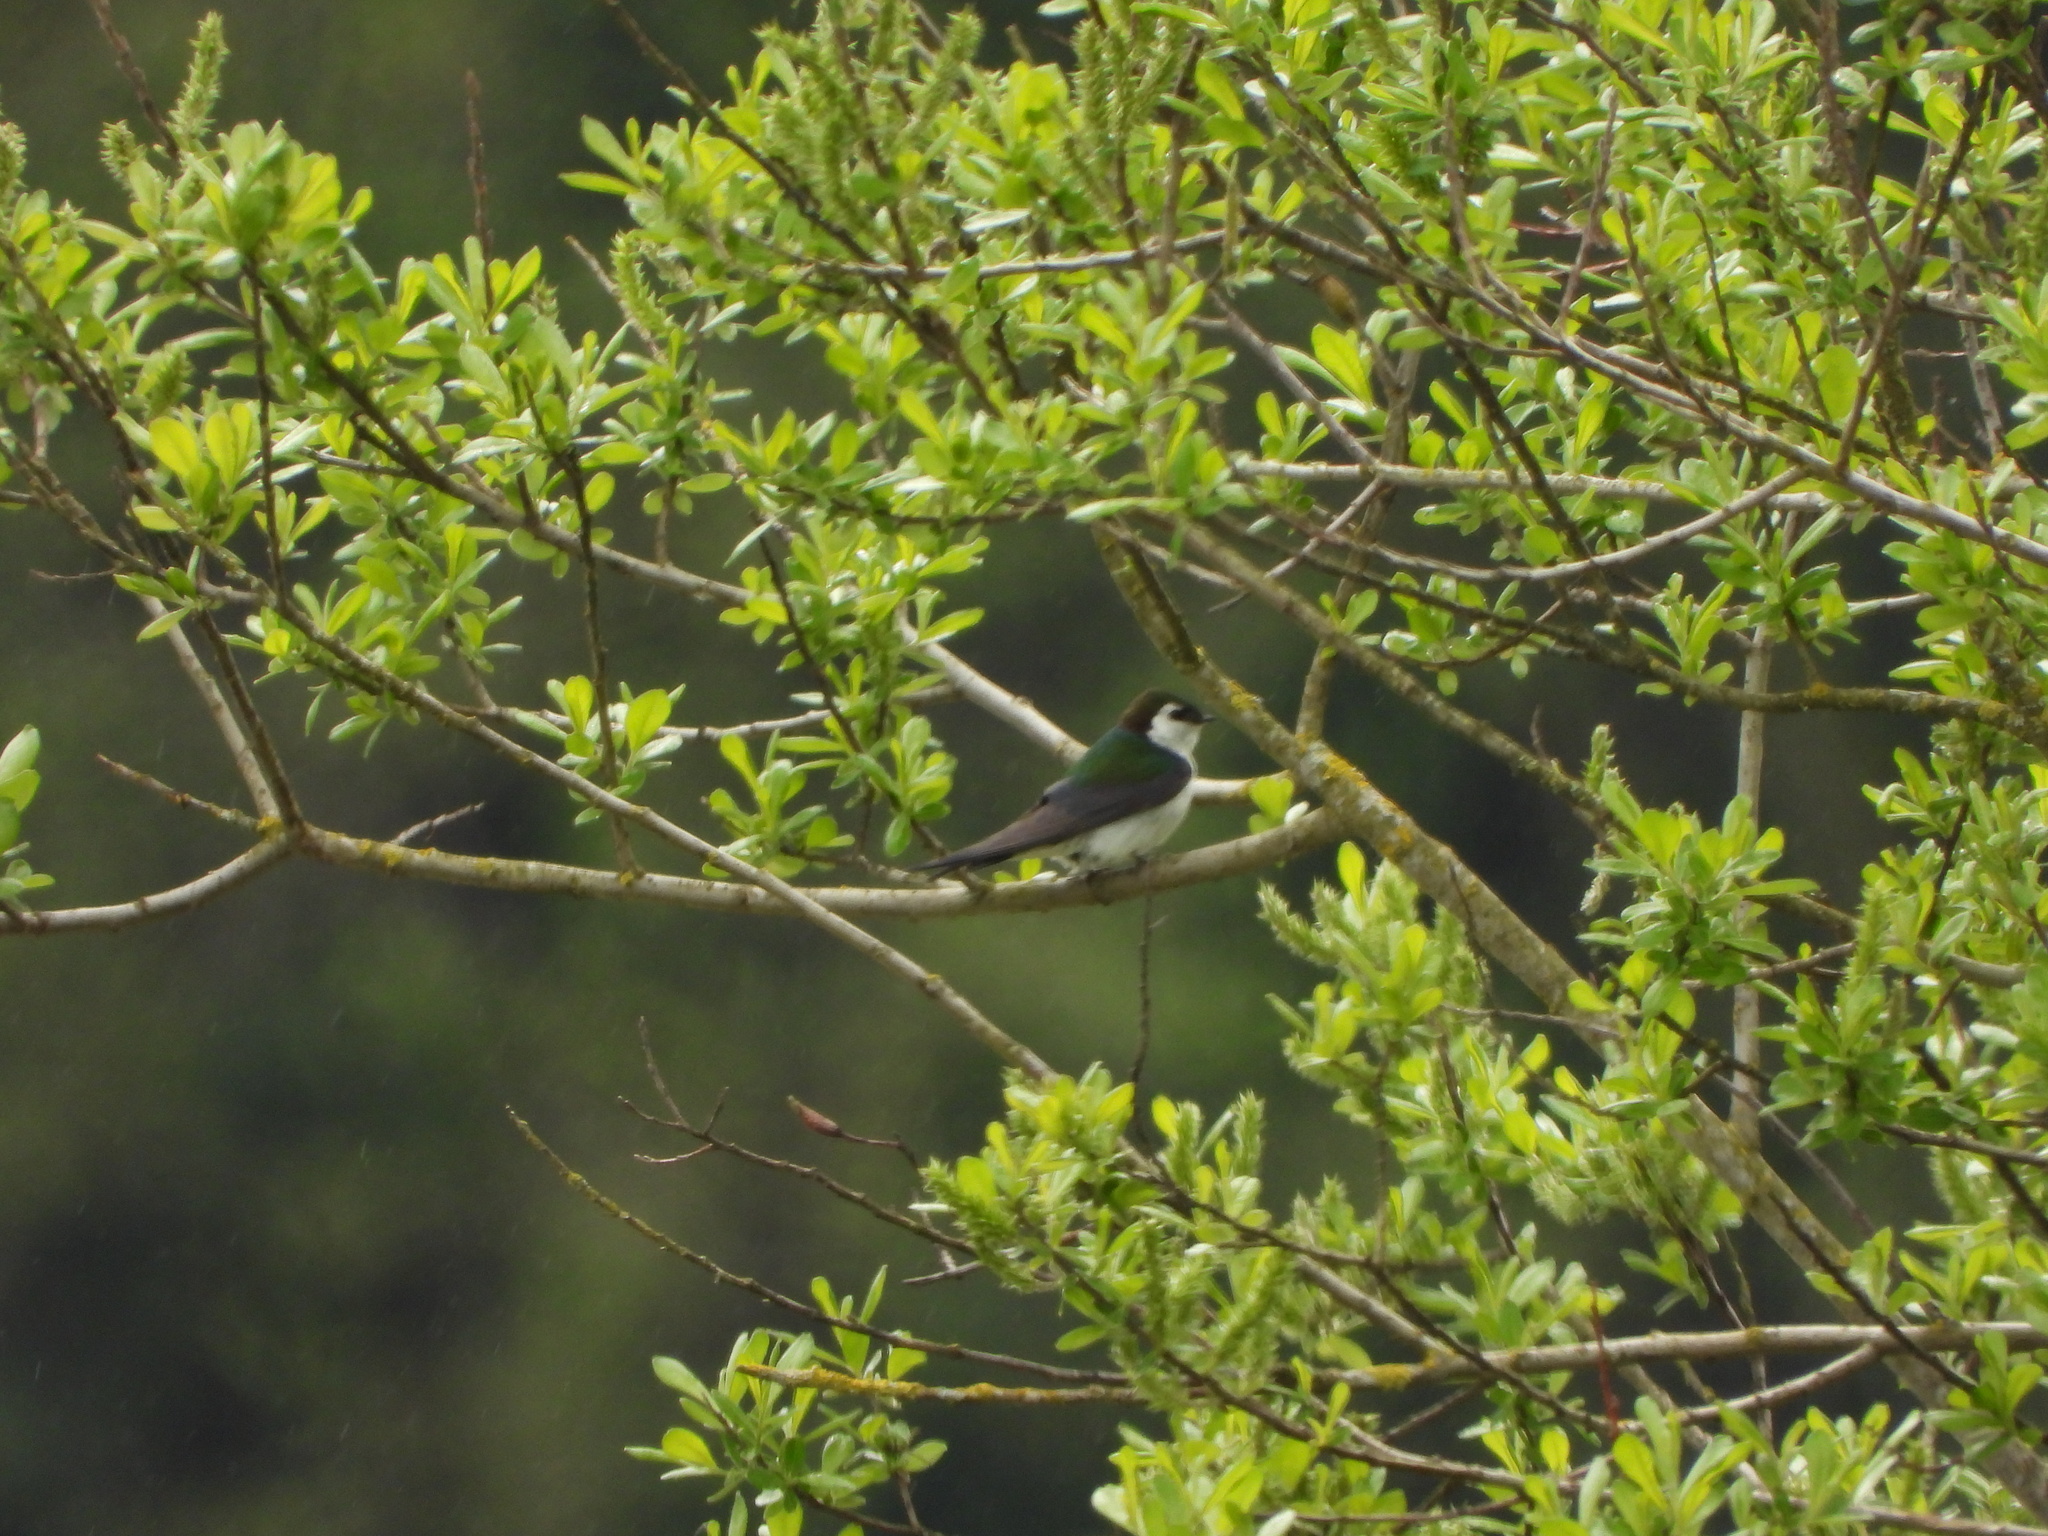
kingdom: Animalia
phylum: Chordata
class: Aves
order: Passeriformes
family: Hirundinidae
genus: Tachycineta
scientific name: Tachycineta thalassina
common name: Violet-green swallow
